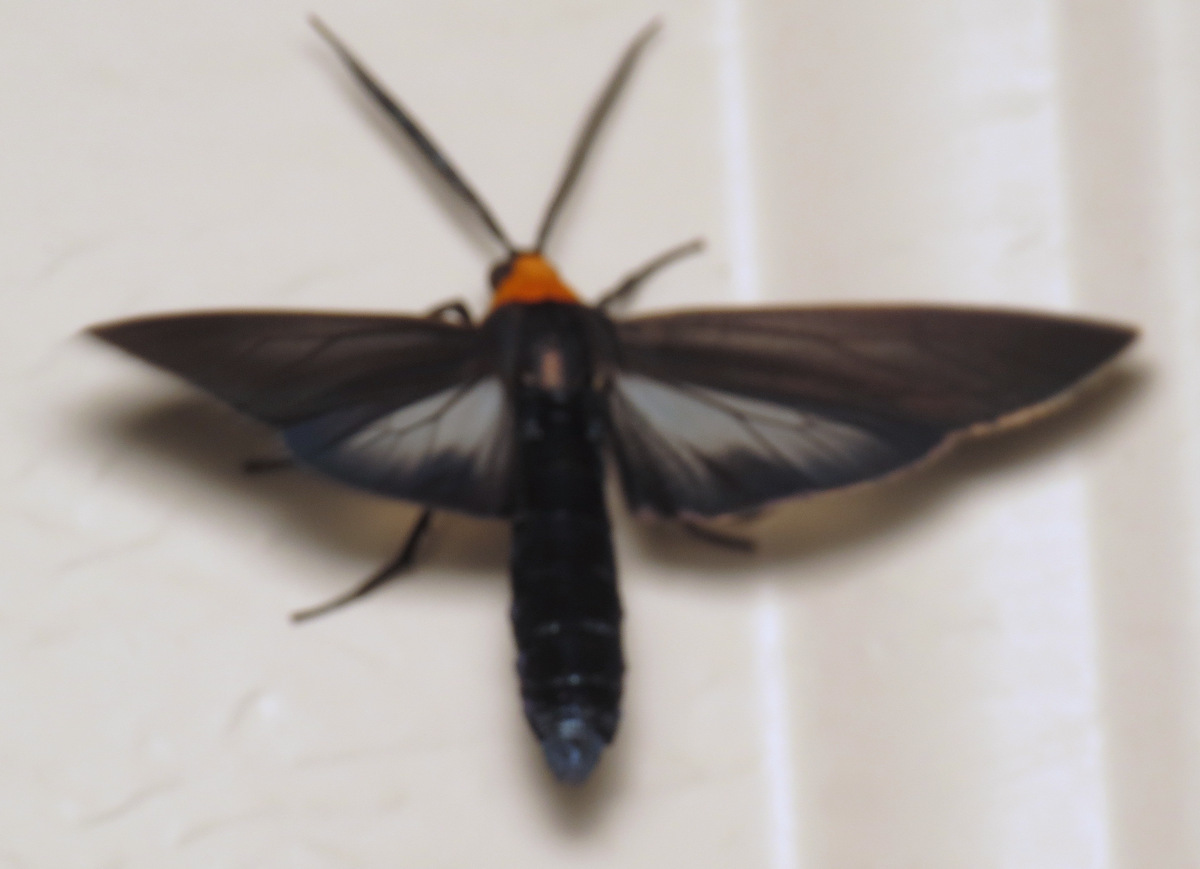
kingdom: Animalia
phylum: Arthropoda
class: Insecta
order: Lepidoptera
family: Erebidae
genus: Cisseps
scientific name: Cisseps fulvicollis
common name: Yellow-collared scape moth
